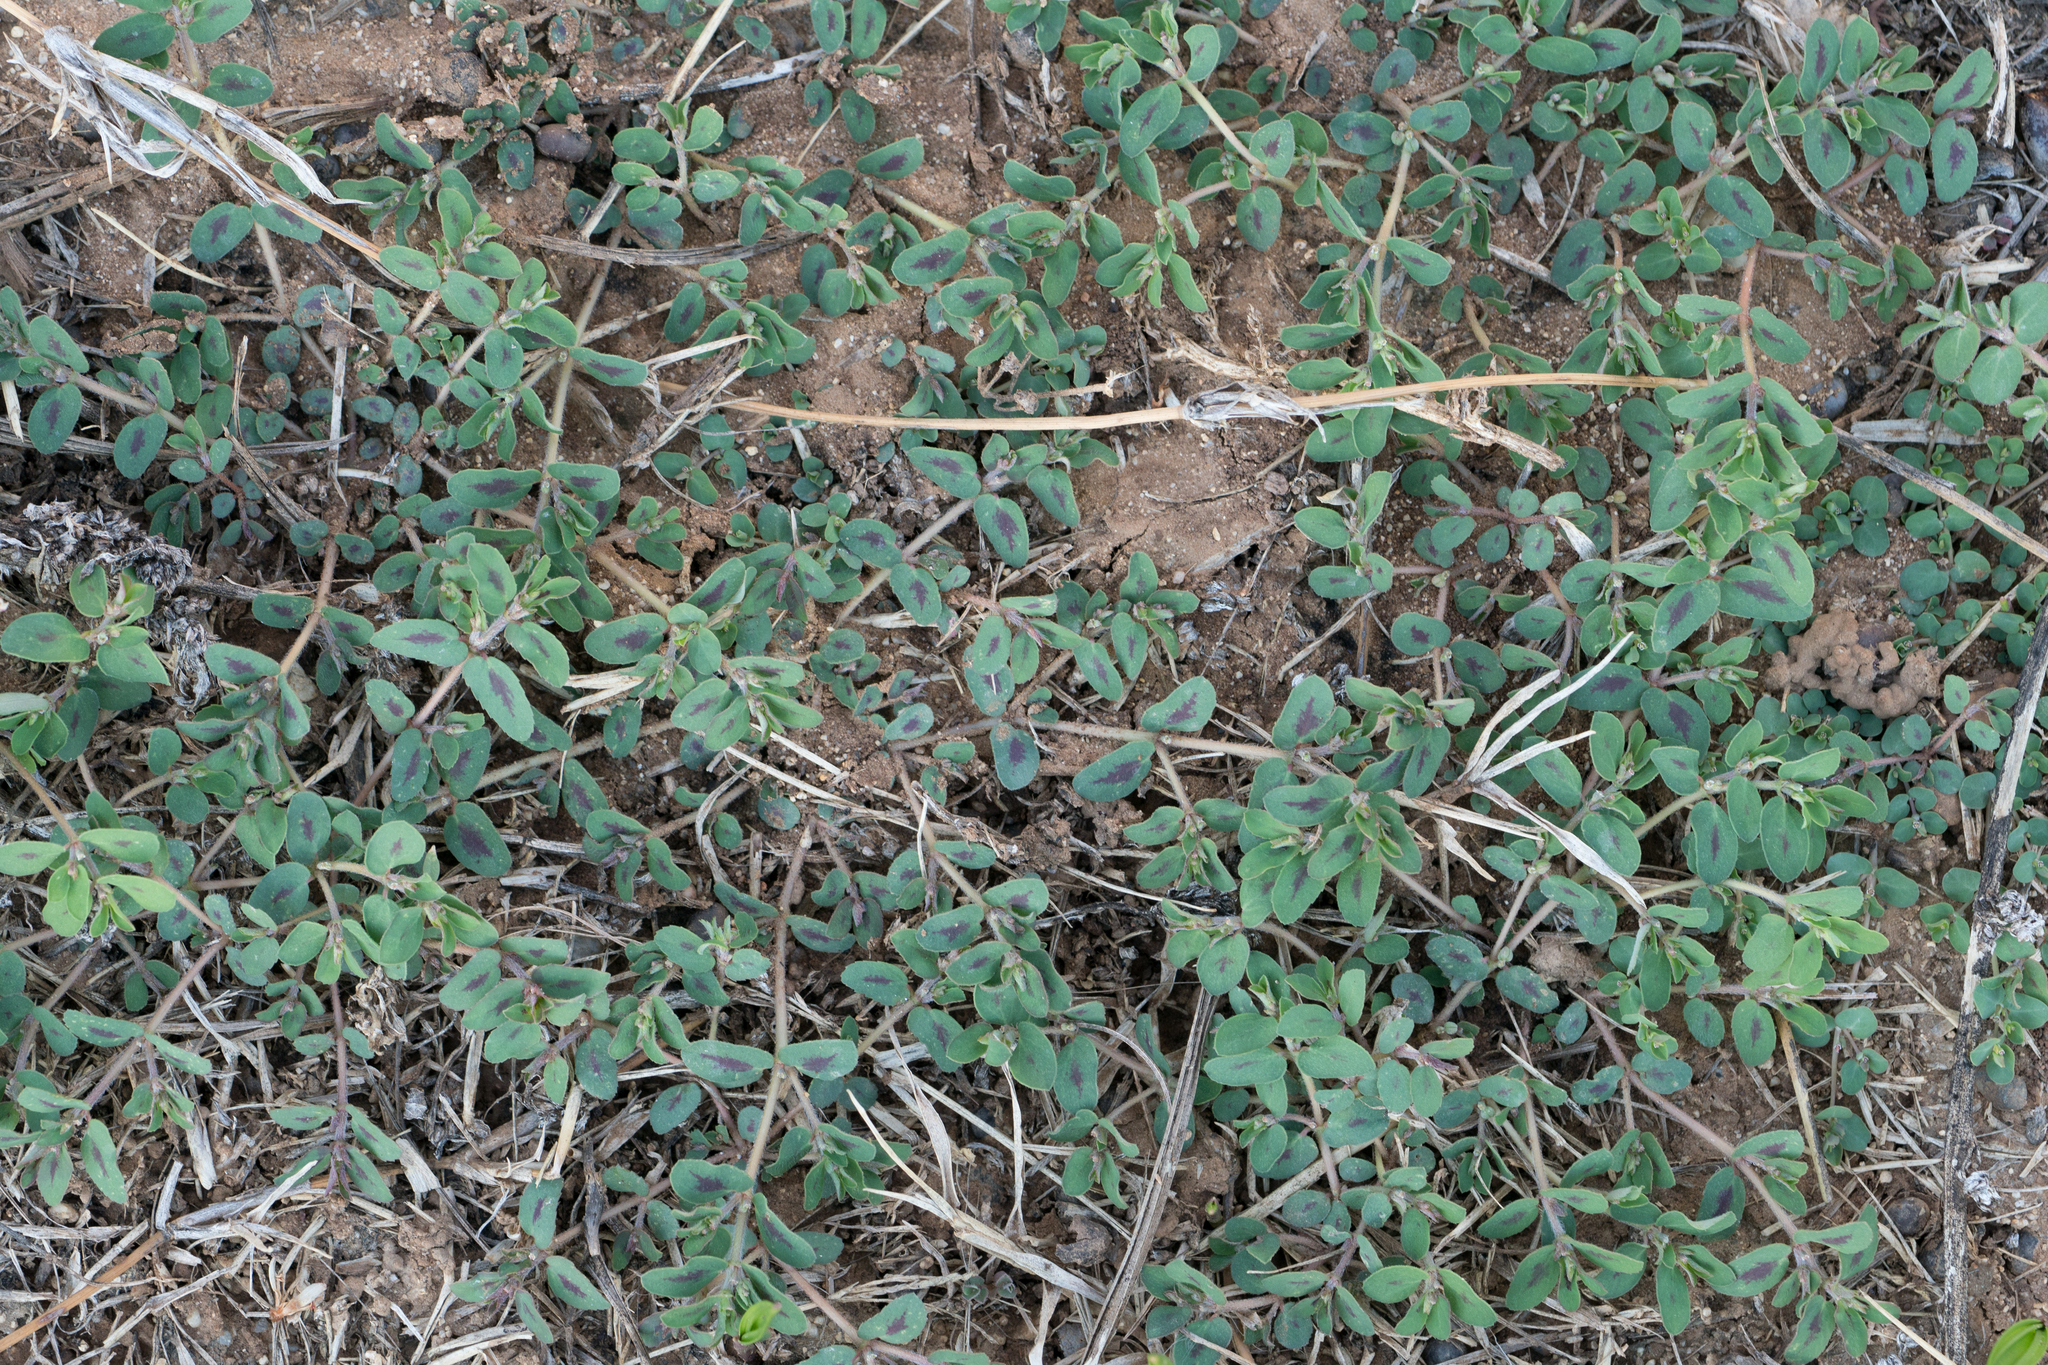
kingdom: Plantae
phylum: Tracheophyta
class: Magnoliopsida
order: Malpighiales
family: Euphorbiaceae
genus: Euphorbia
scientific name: Euphorbia maculata
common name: Spotted spurge
